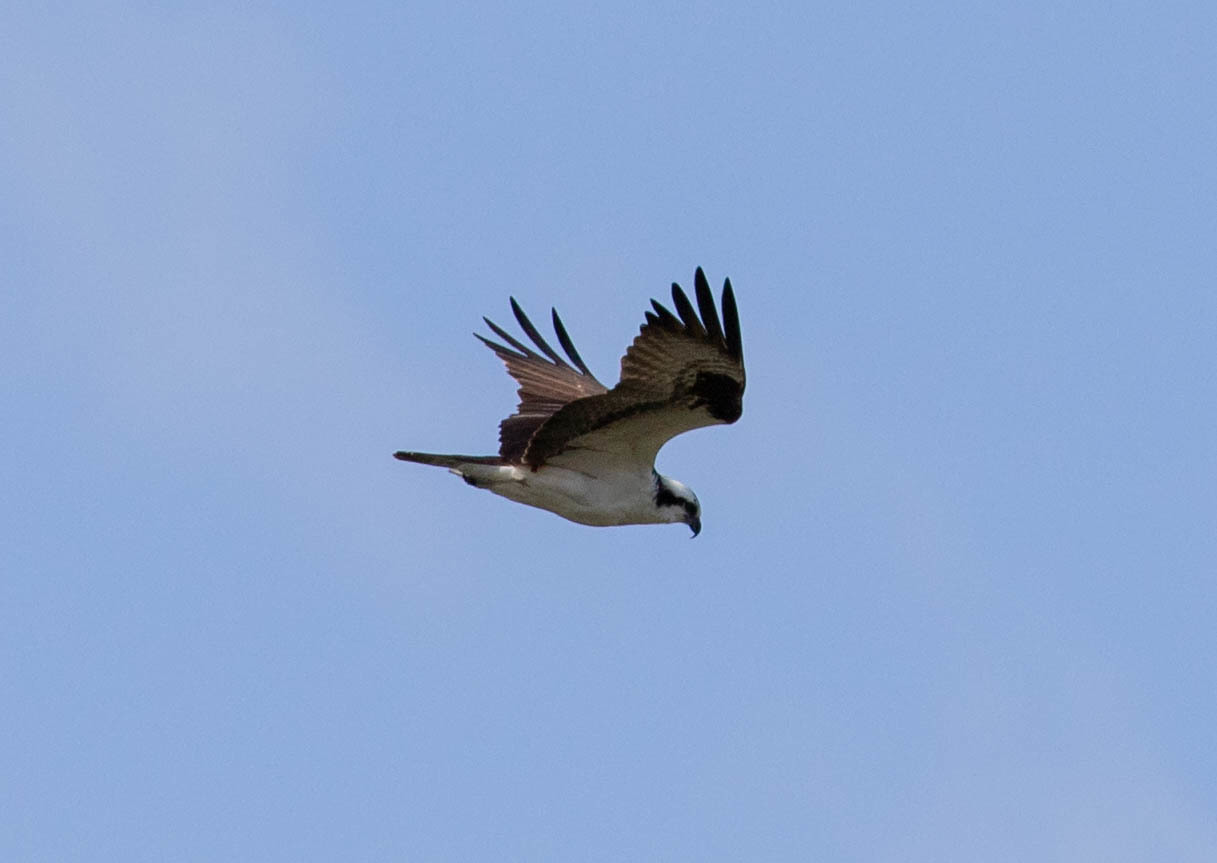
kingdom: Animalia
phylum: Chordata
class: Aves
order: Accipitriformes
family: Pandionidae
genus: Pandion
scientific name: Pandion haliaetus
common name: Osprey
